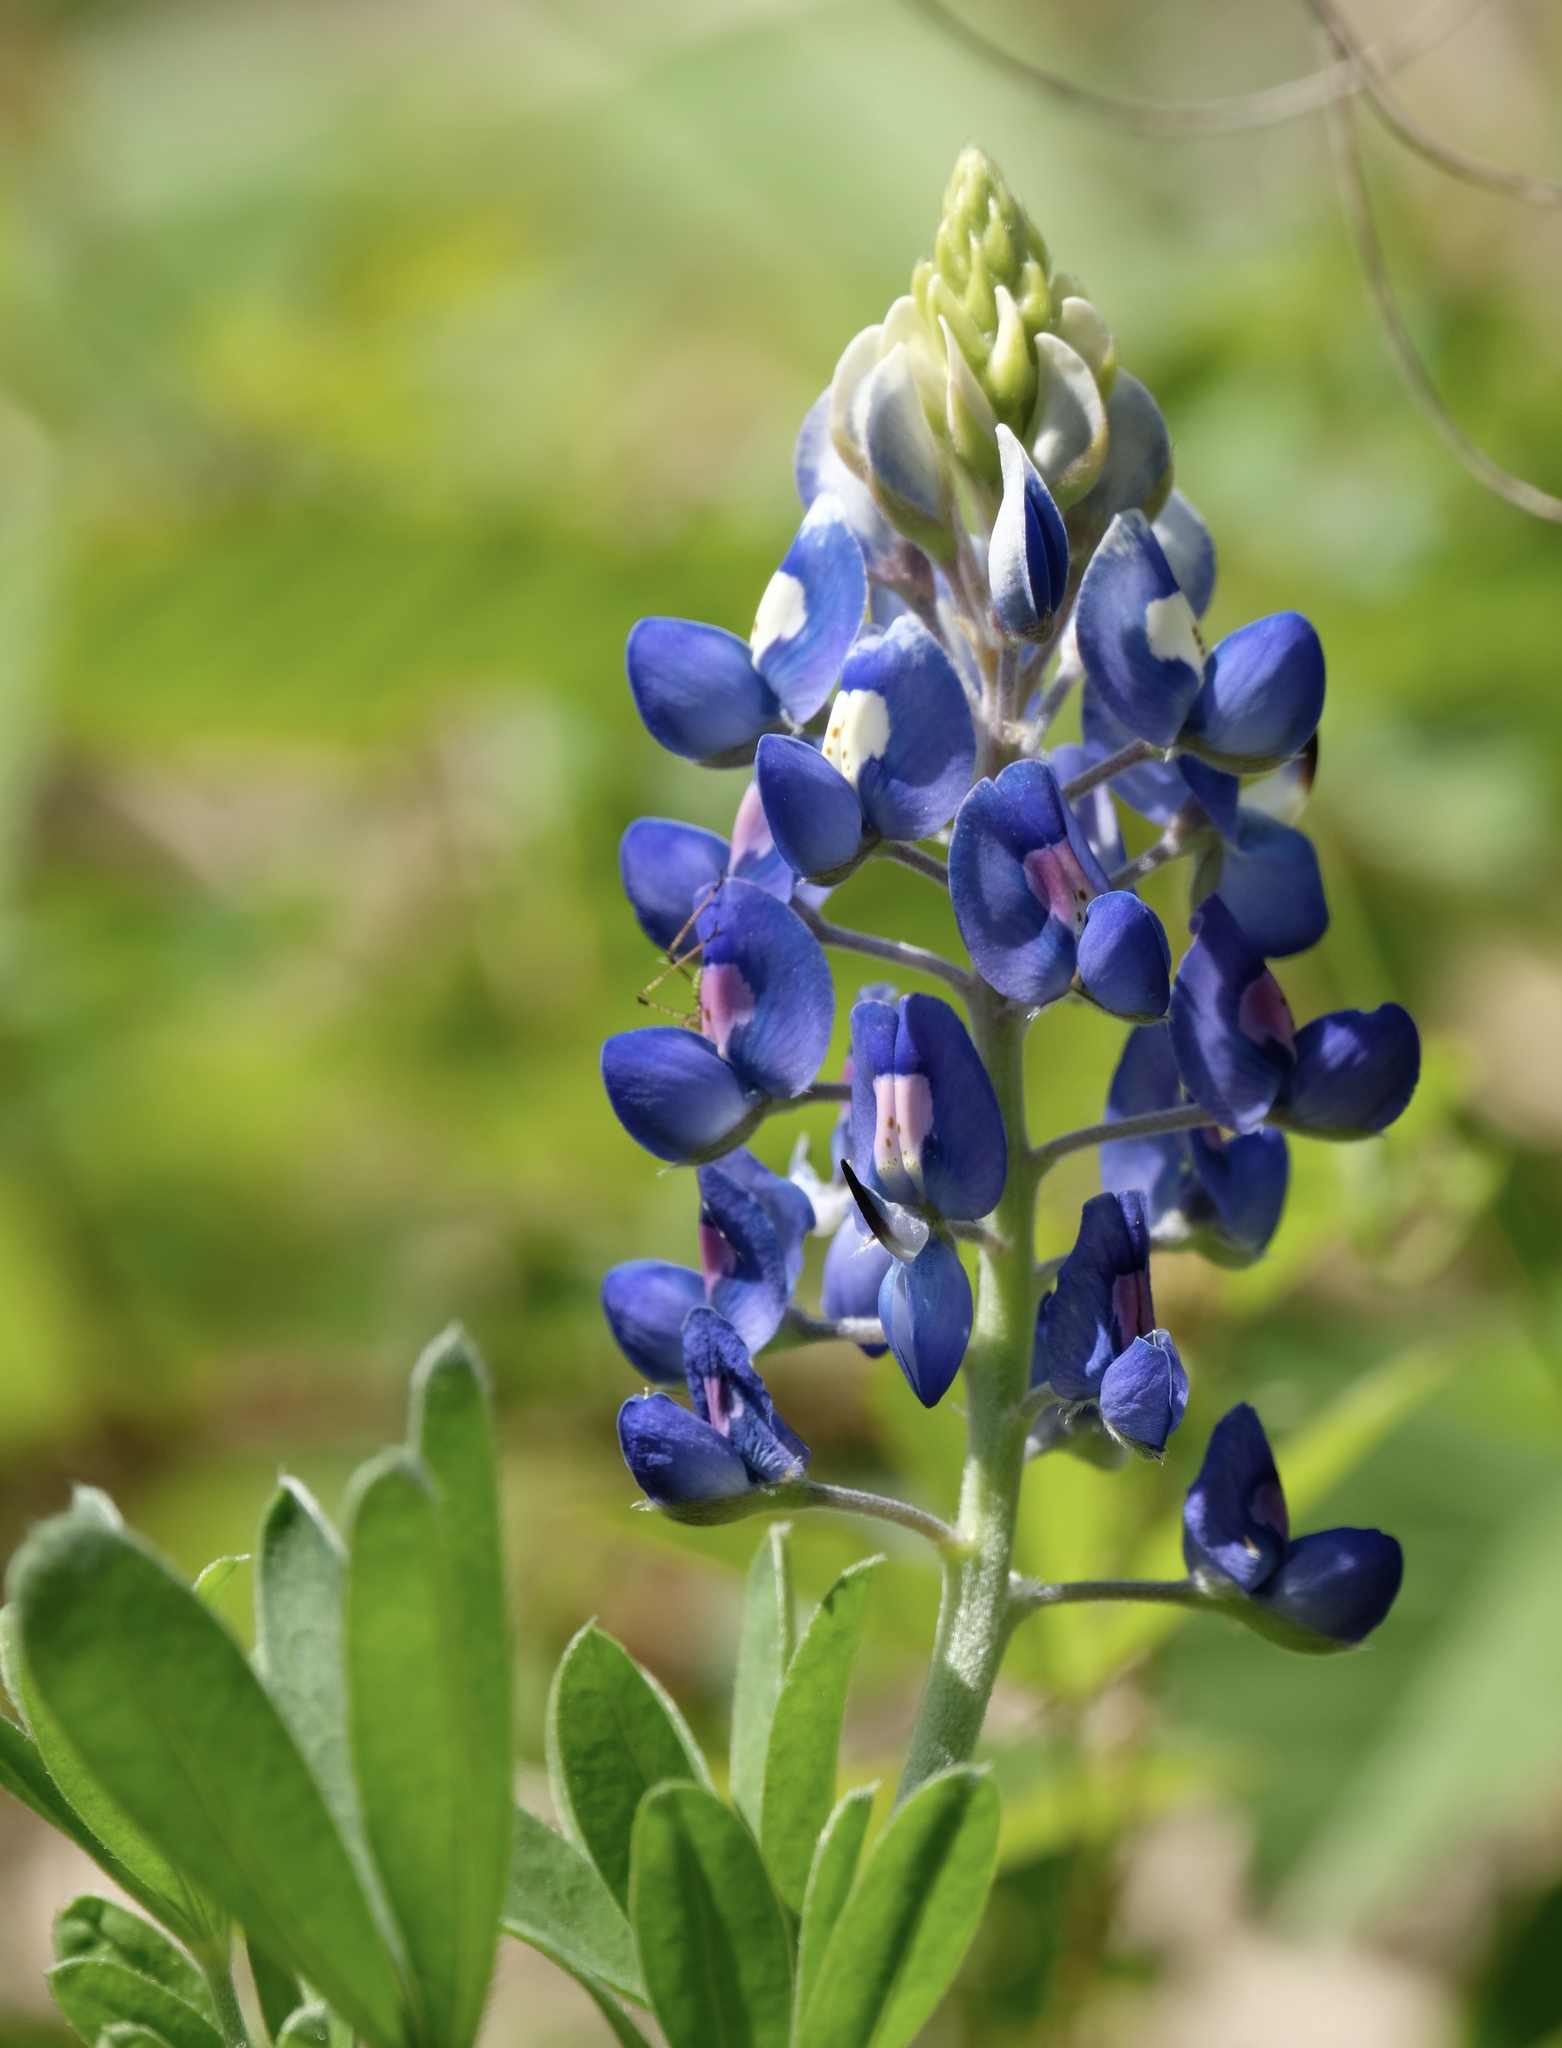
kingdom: Plantae
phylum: Tracheophyta
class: Magnoliopsida
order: Fabales
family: Fabaceae
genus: Lupinus
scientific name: Lupinus texensis
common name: Texas bluebonnet
